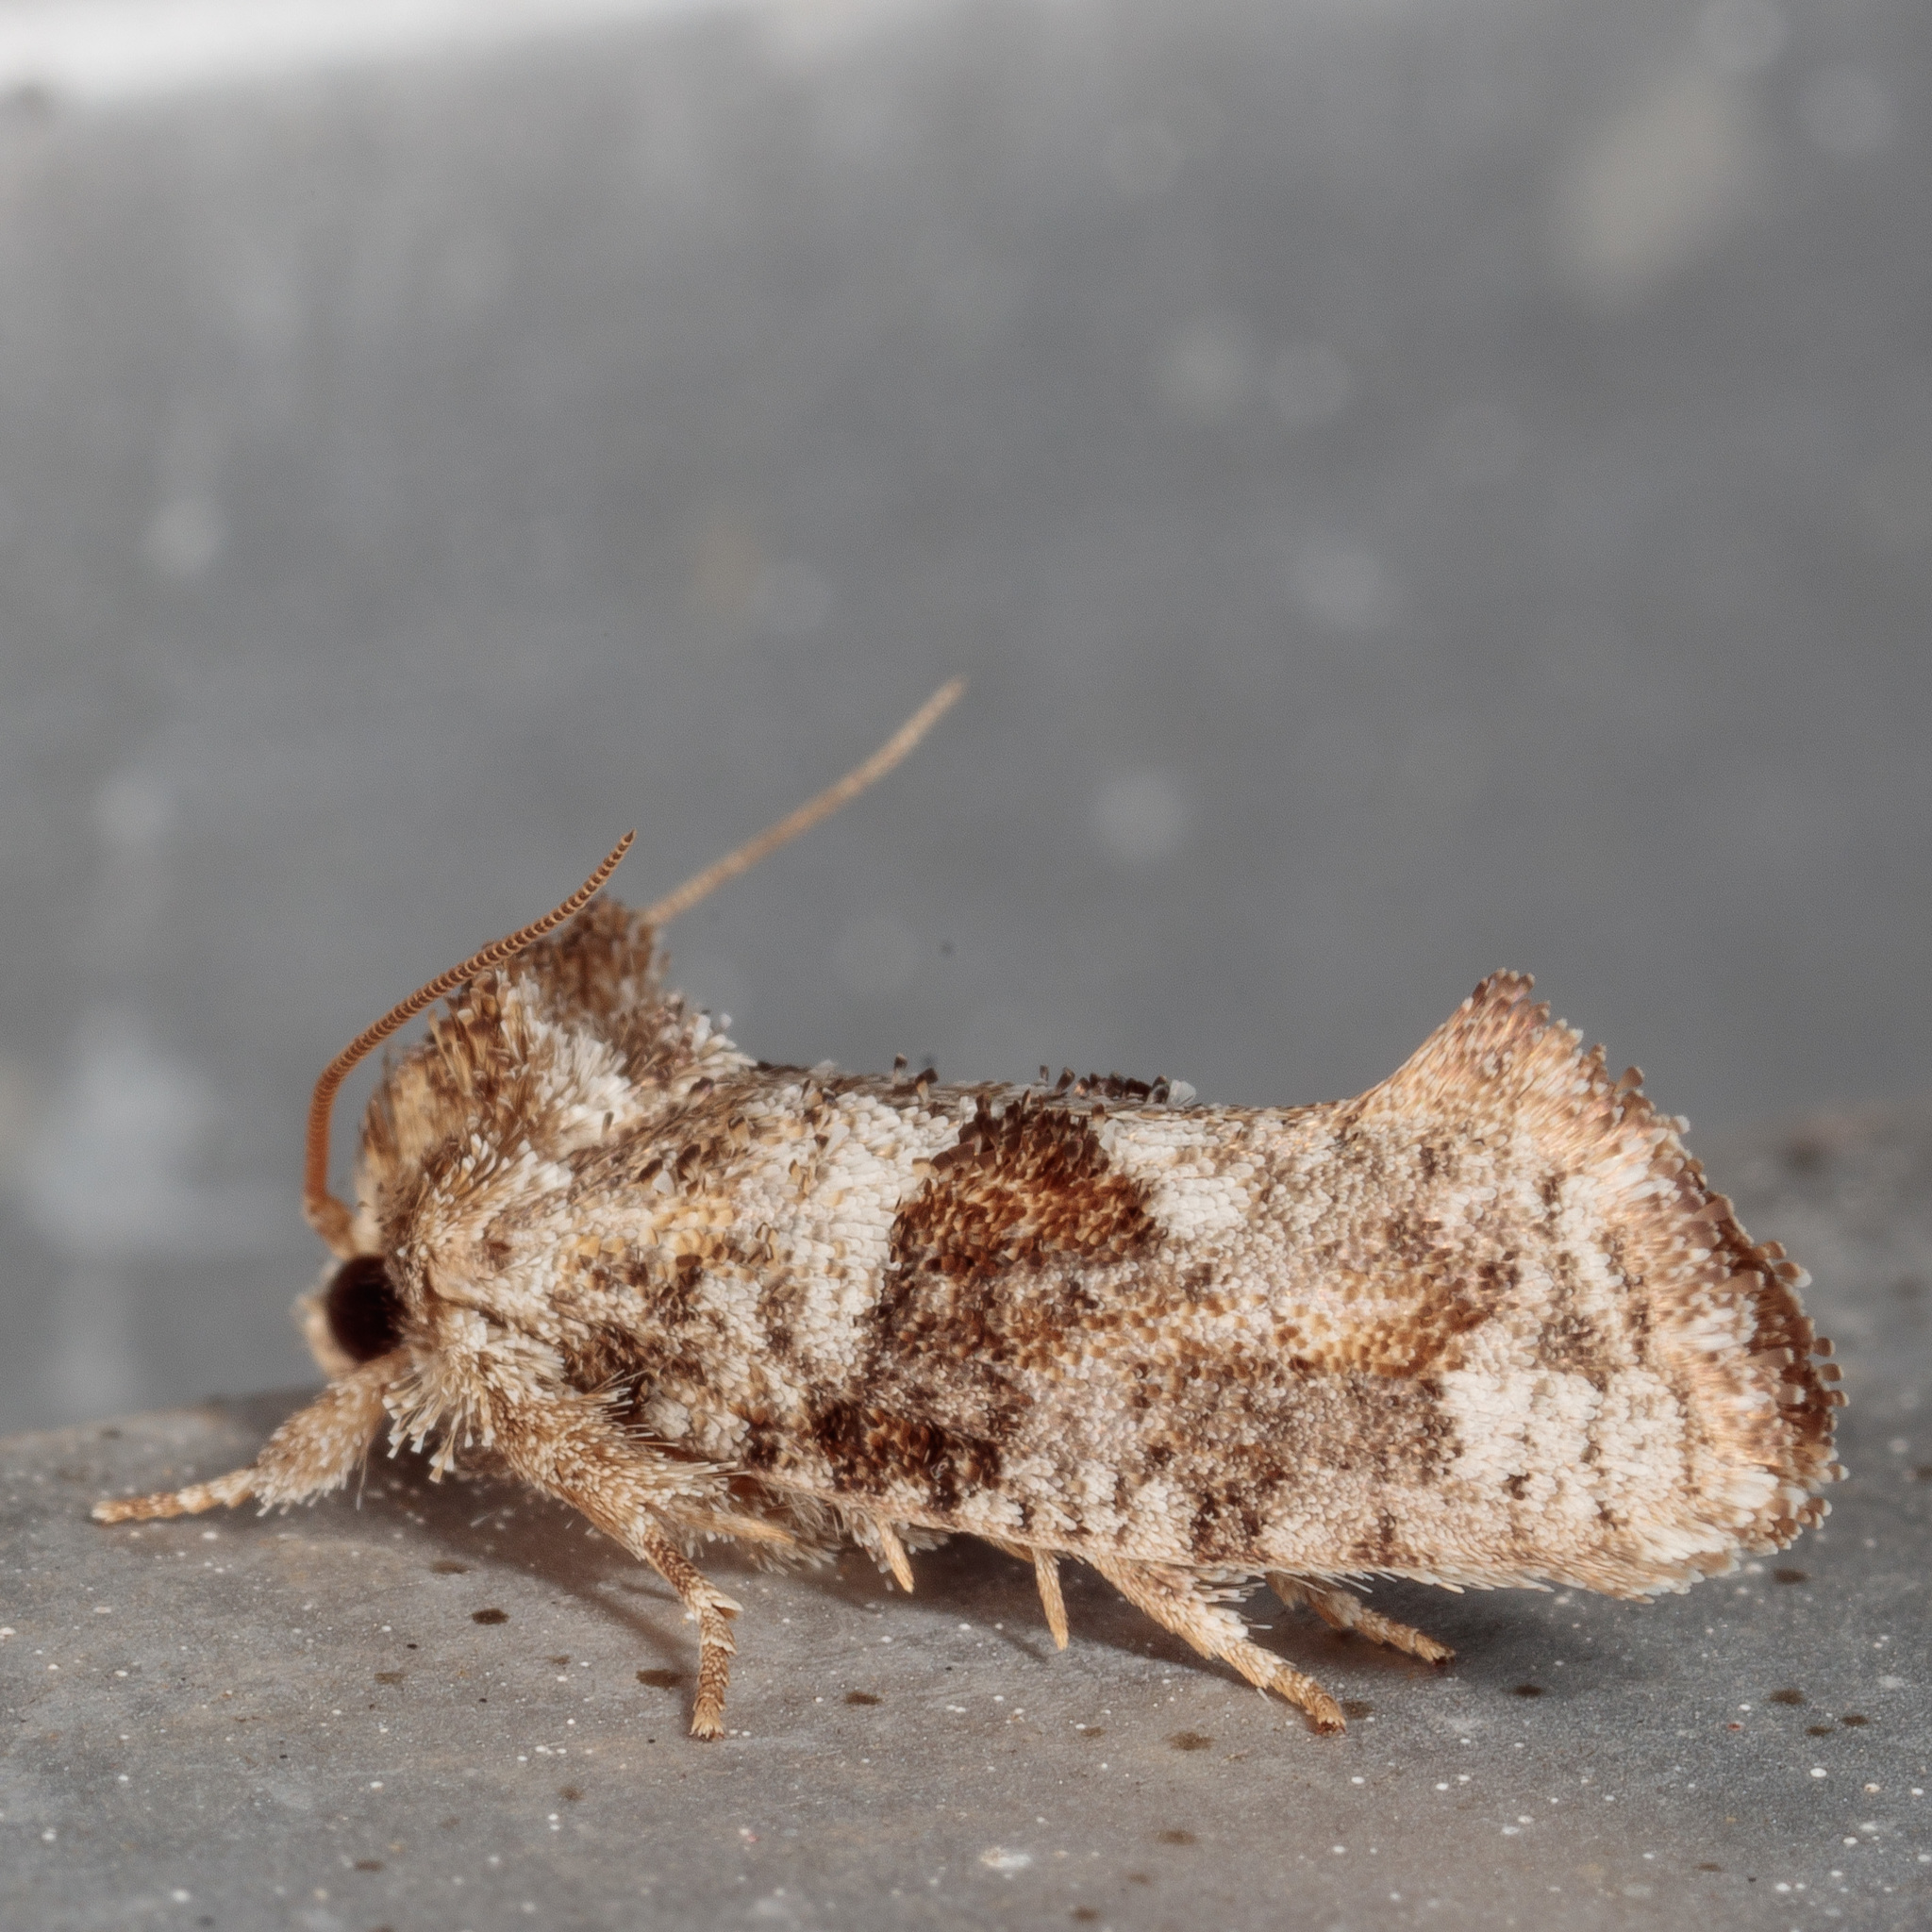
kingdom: Animalia
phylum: Arthropoda
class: Insecta
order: Lepidoptera
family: Tineidae
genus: Acrolophus
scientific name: Acrolophus piger
